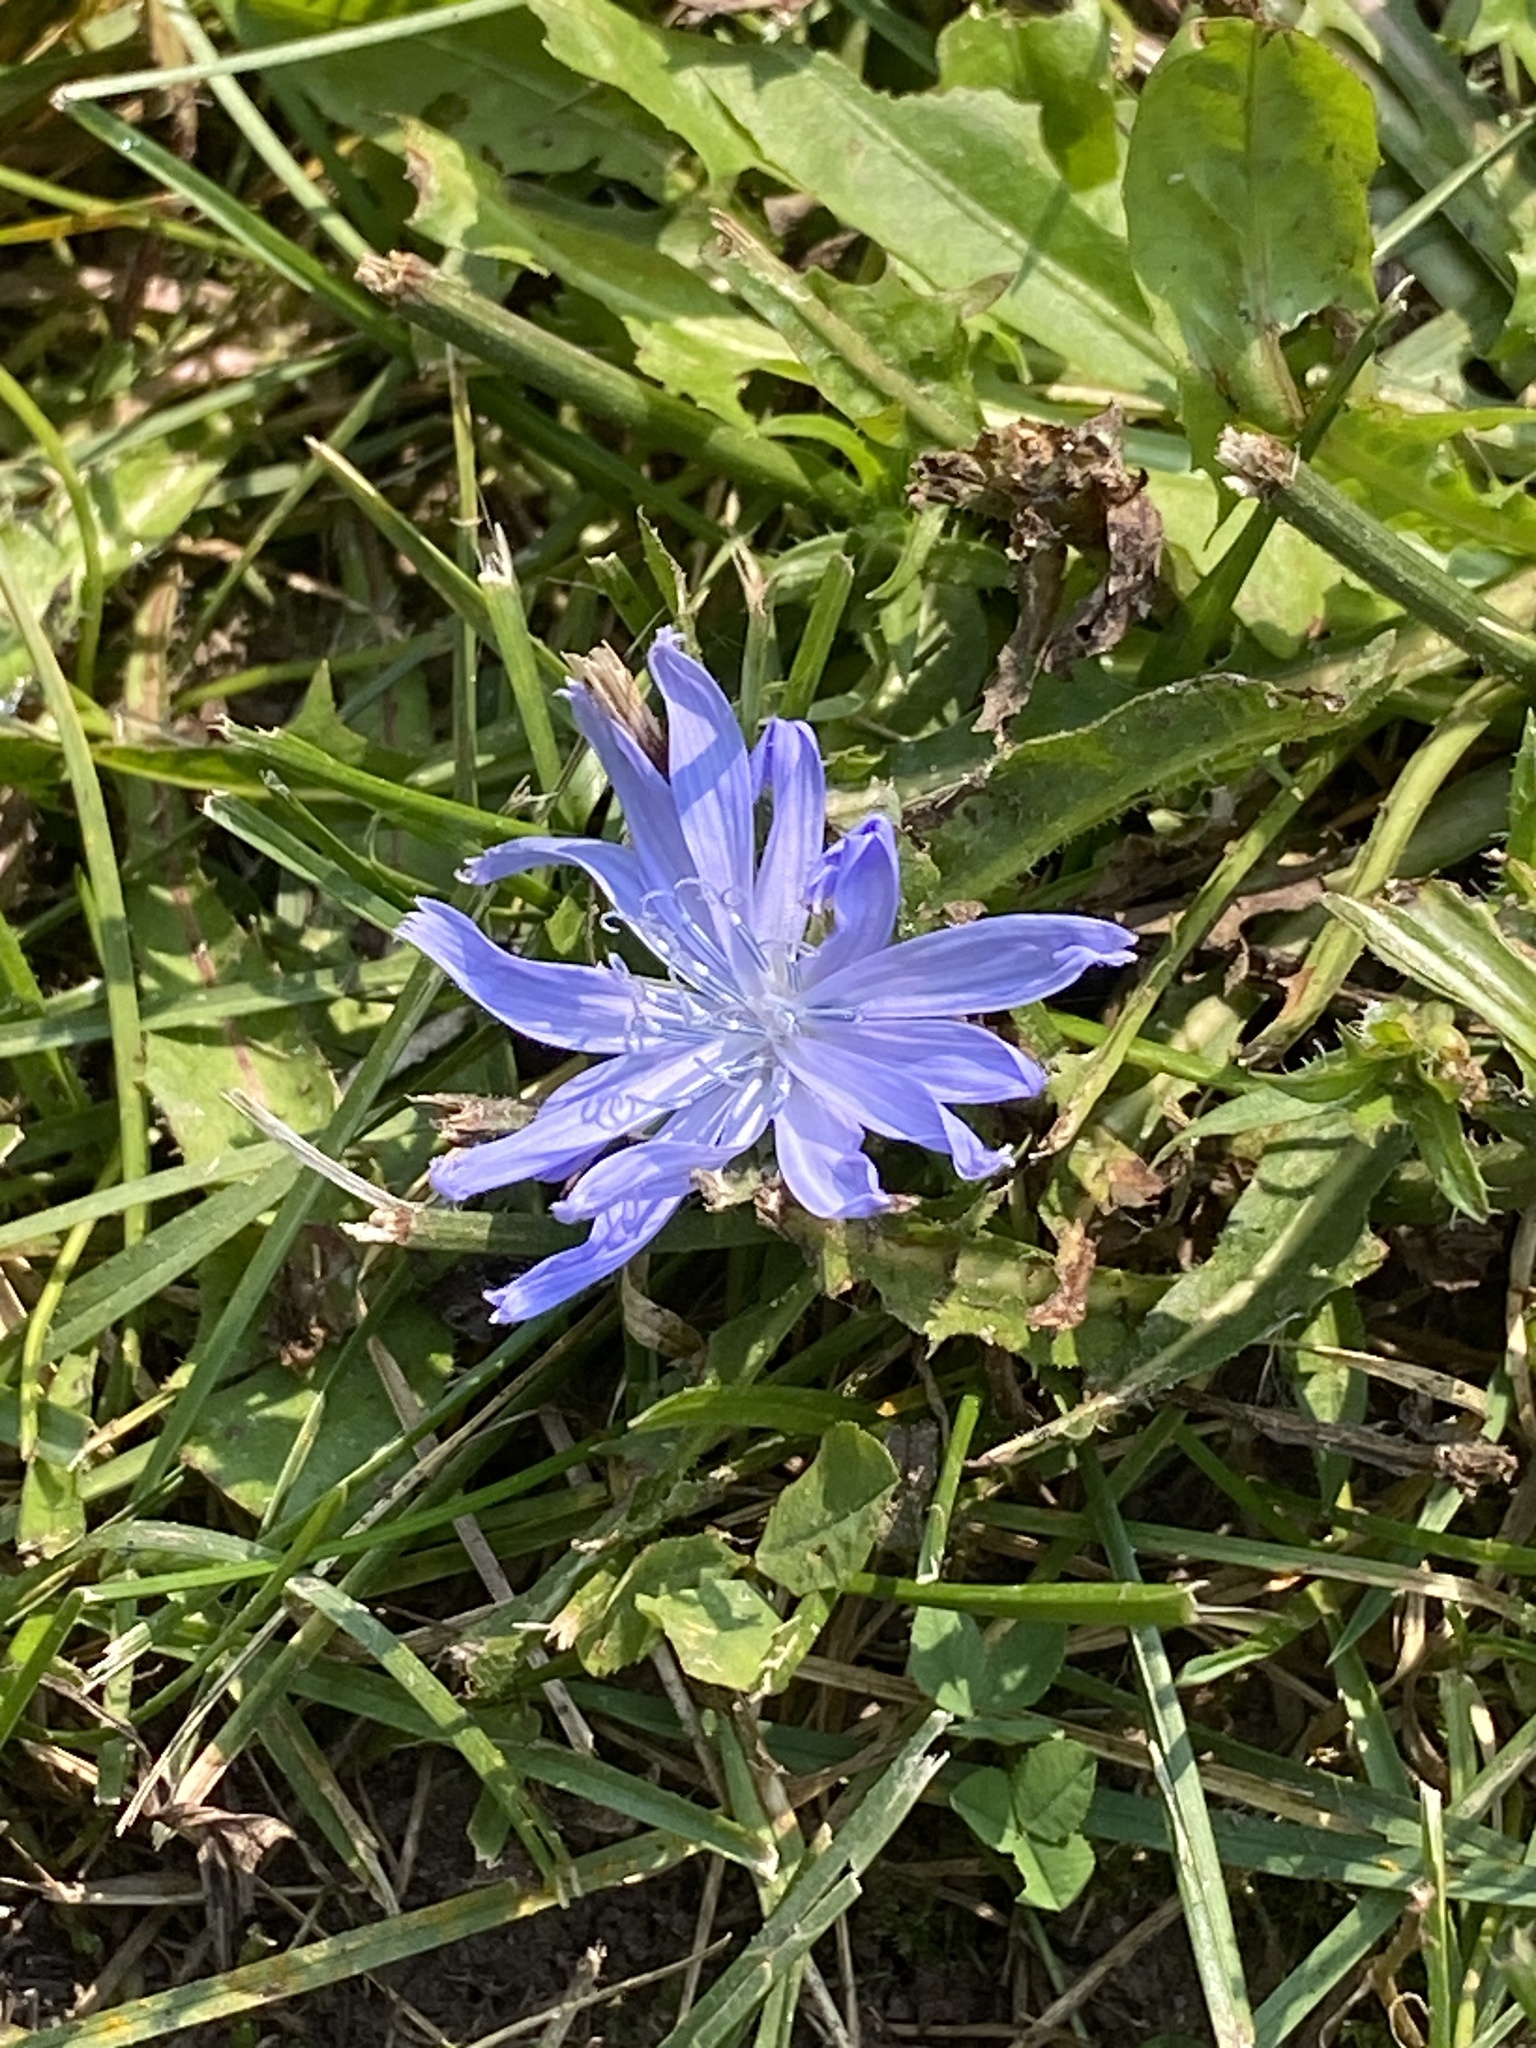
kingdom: Plantae
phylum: Tracheophyta
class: Magnoliopsida
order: Asterales
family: Asteraceae
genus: Cichorium
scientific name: Cichorium intybus
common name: Chicory
